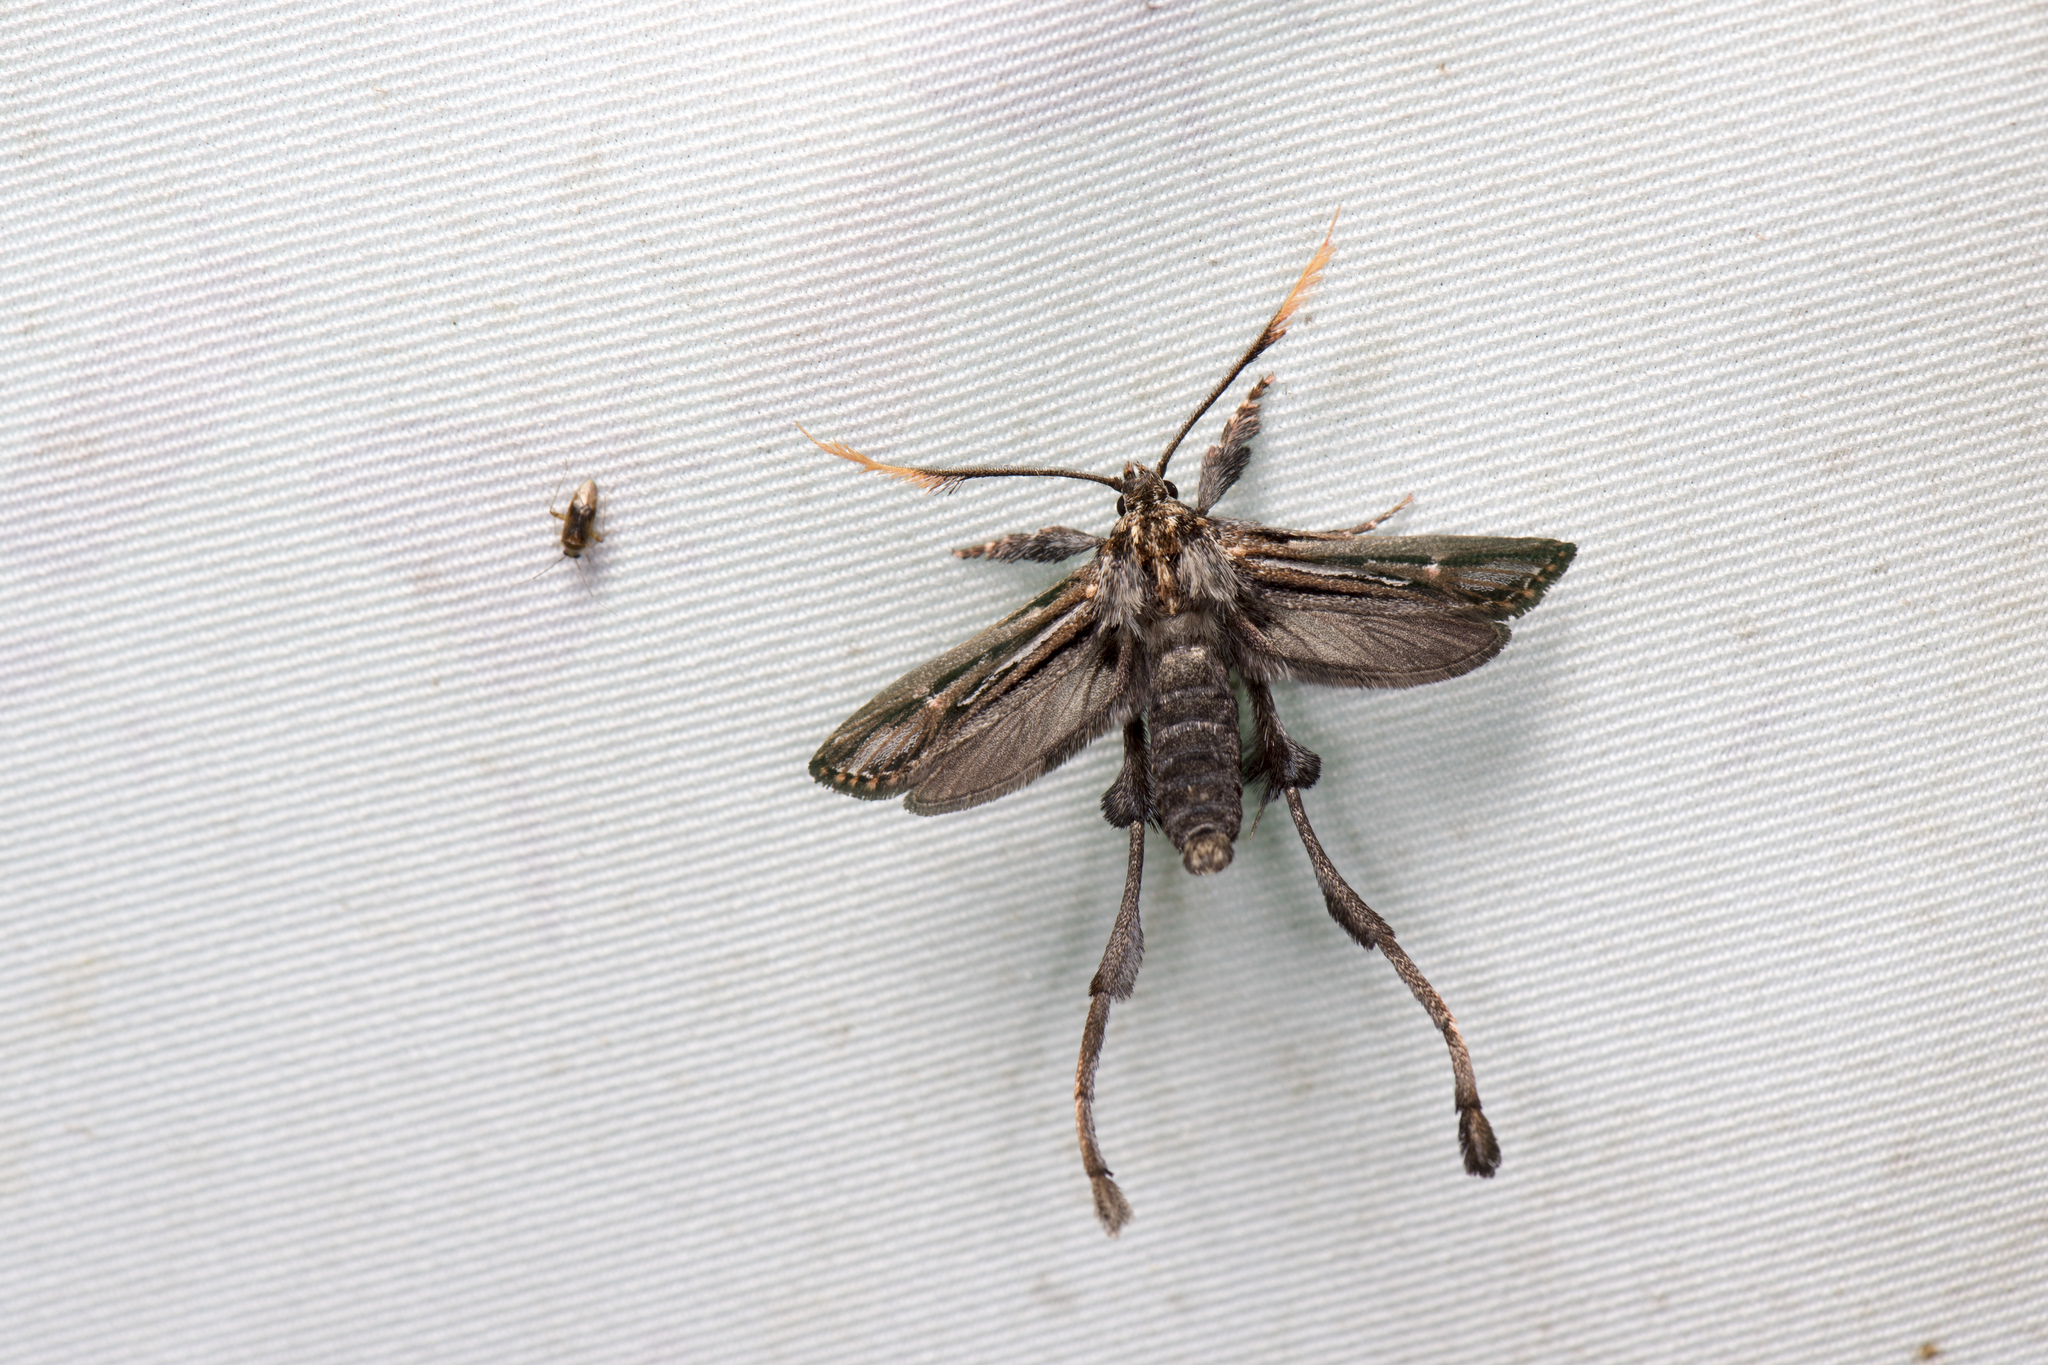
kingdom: Animalia
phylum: Arthropoda
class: Insecta
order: Lepidoptera
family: Ashinagidae
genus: Ashinaga
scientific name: Ashinaga longimana
